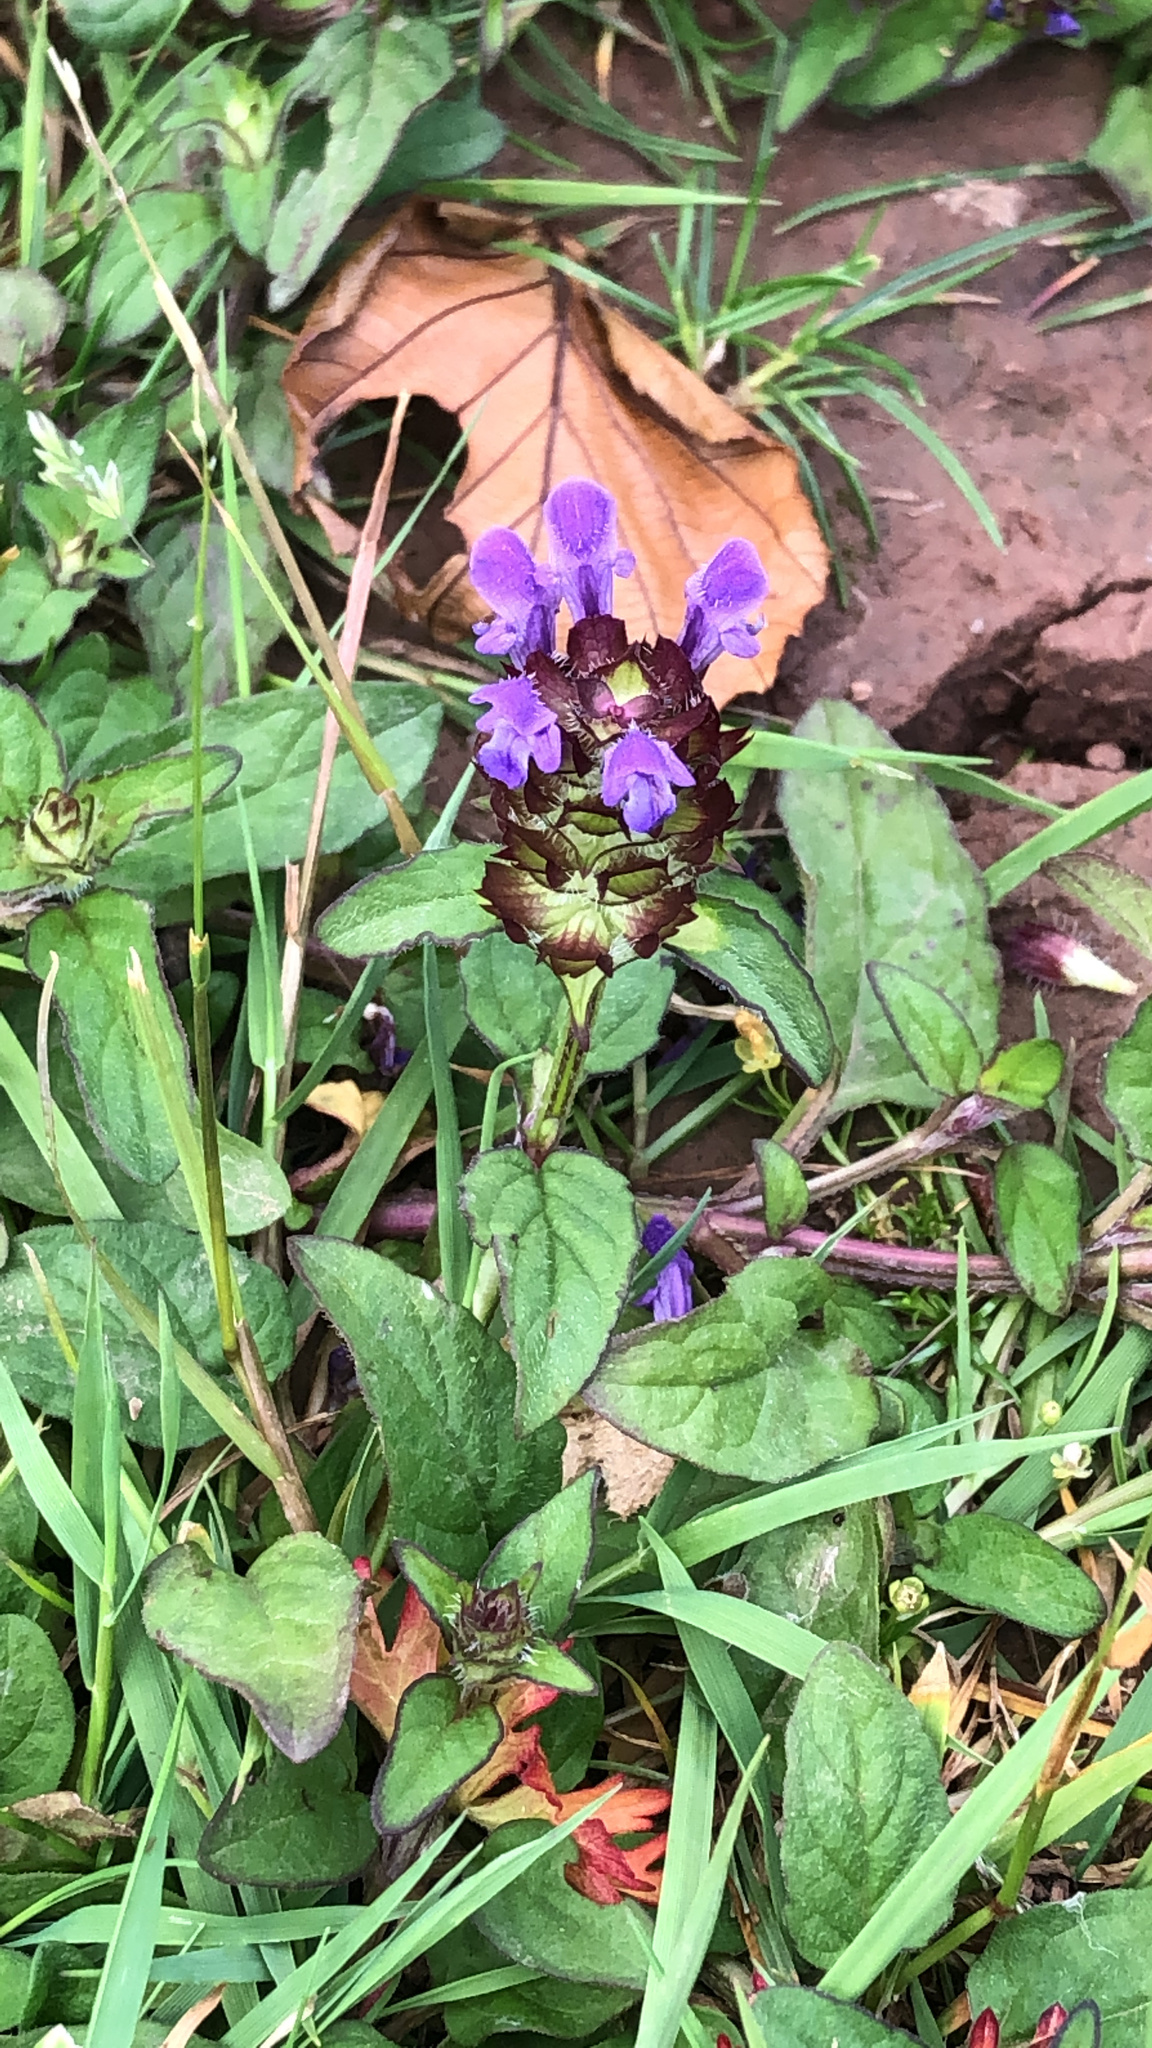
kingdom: Plantae
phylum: Tracheophyta
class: Magnoliopsida
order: Lamiales
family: Lamiaceae
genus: Prunella
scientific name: Prunella vulgaris
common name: Heal-all
